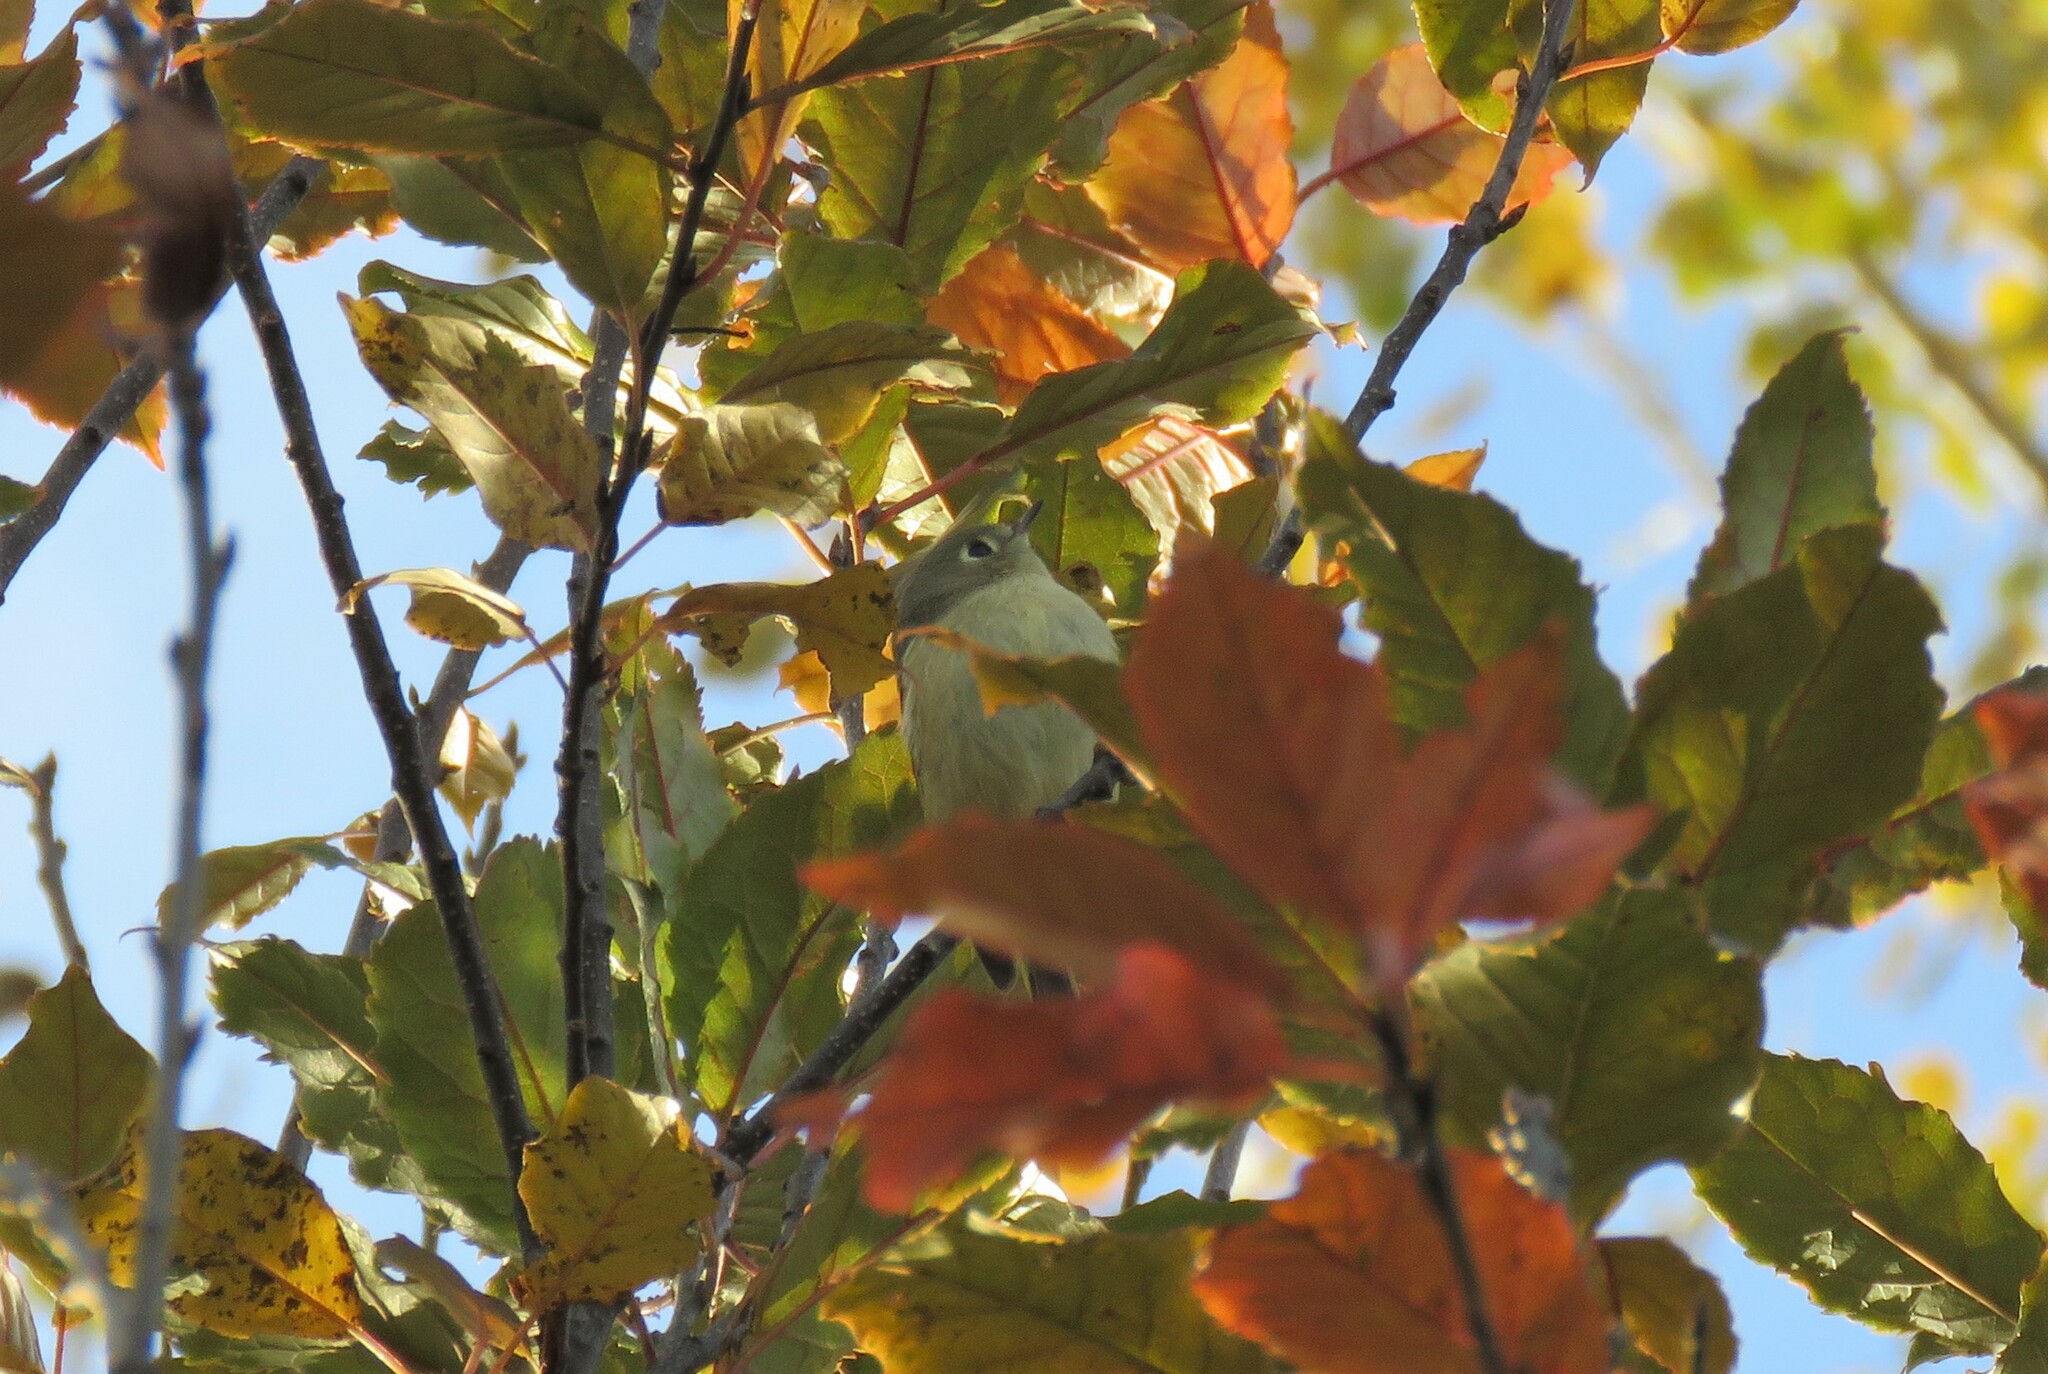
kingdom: Animalia
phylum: Chordata
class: Aves
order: Passeriformes
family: Regulidae
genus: Regulus
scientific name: Regulus calendula
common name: Ruby-crowned kinglet
